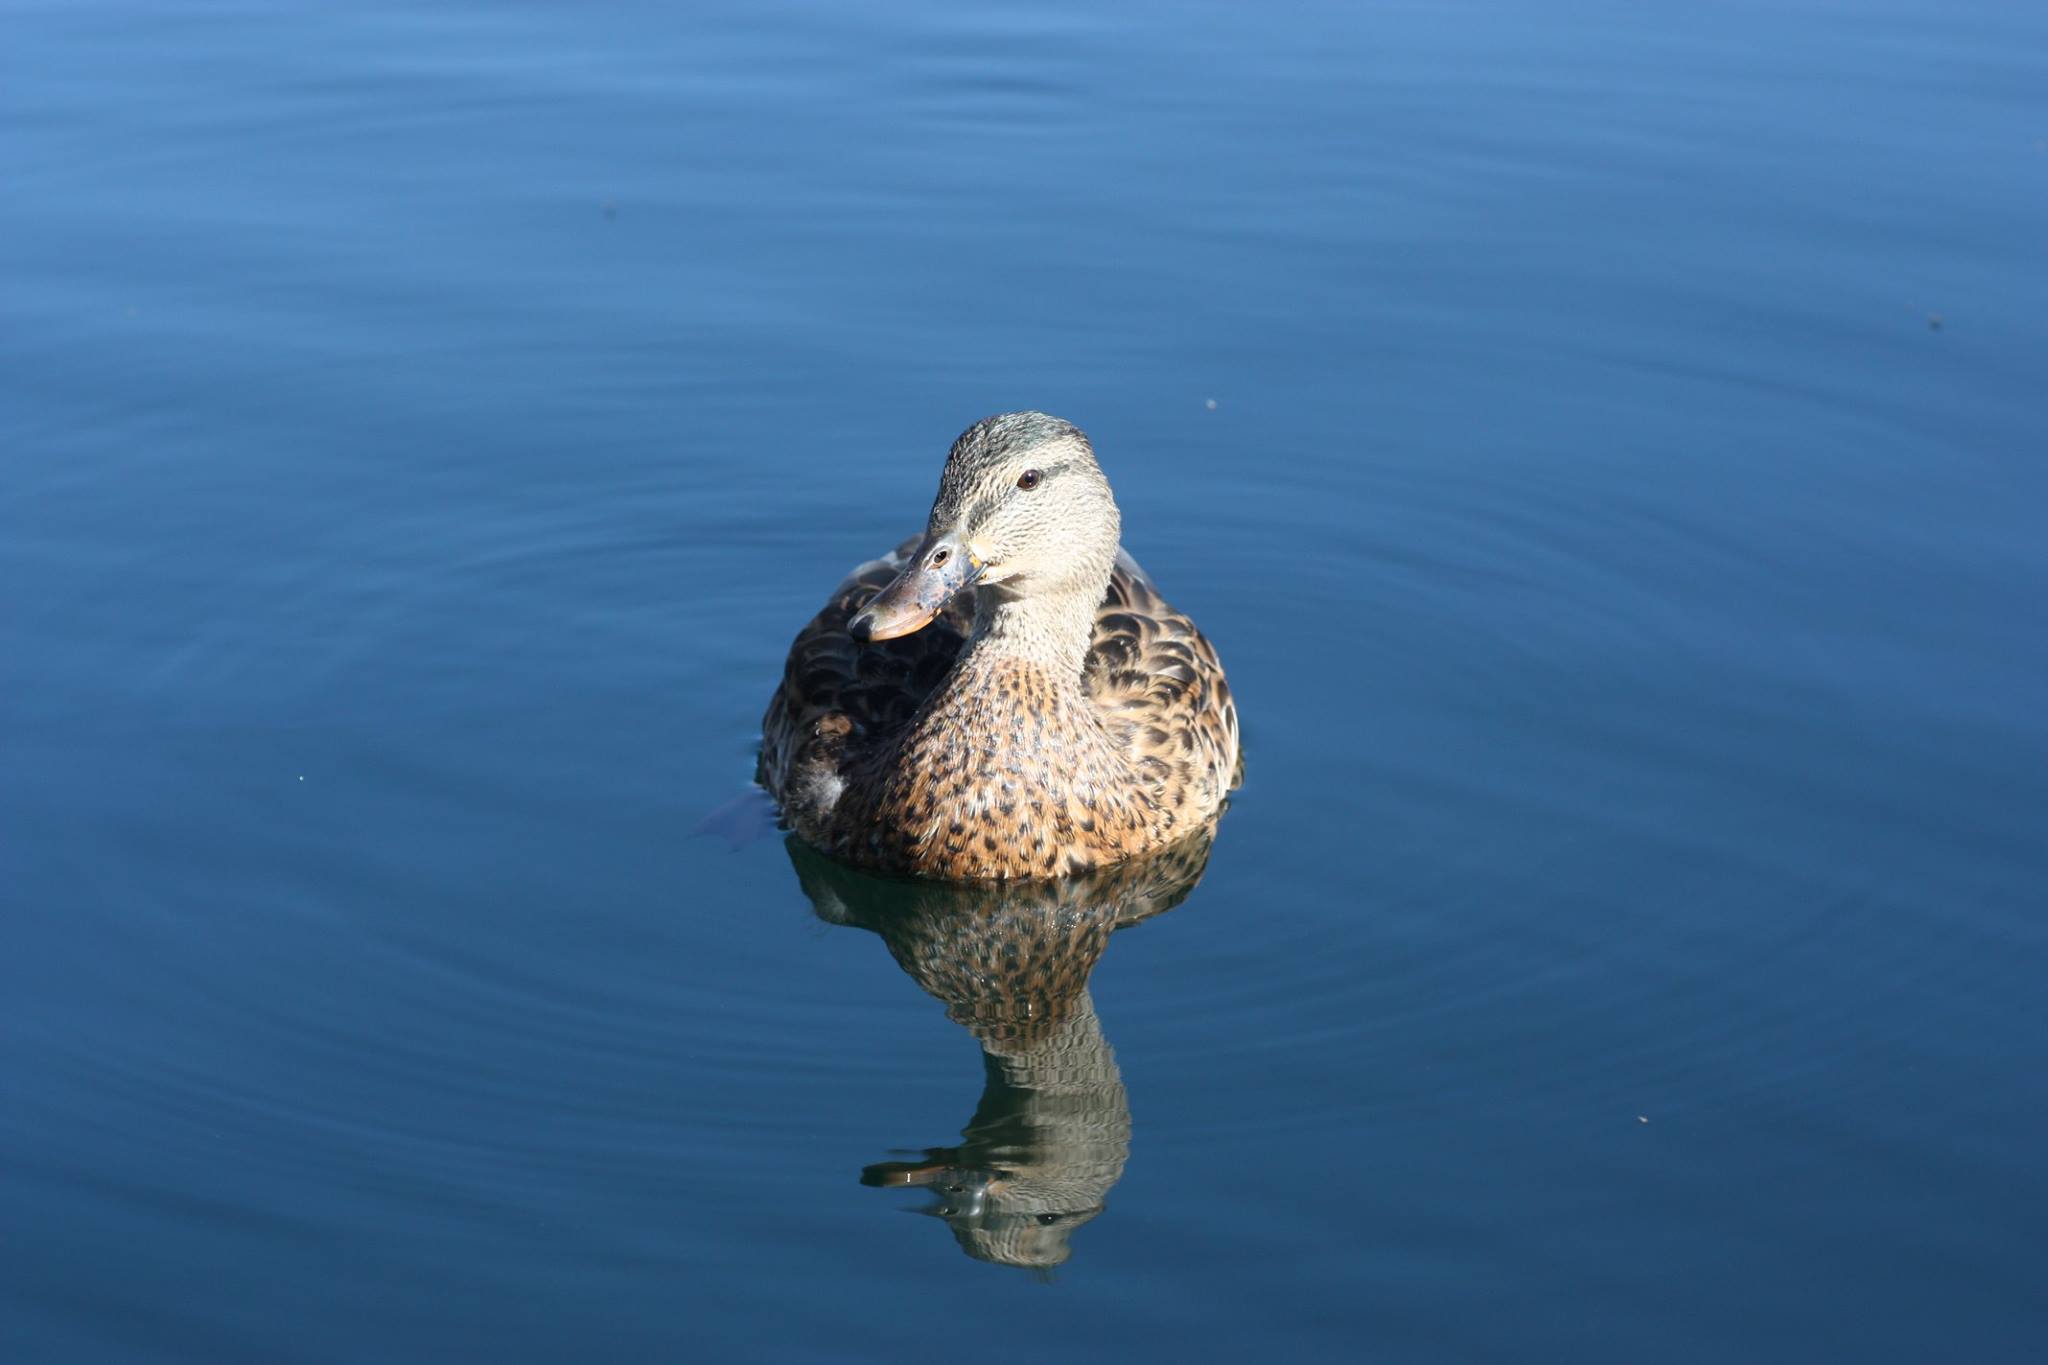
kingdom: Animalia
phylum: Chordata
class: Aves
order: Anseriformes
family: Anatidae
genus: Anas
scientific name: Anas platyrhynchos
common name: Mallard
